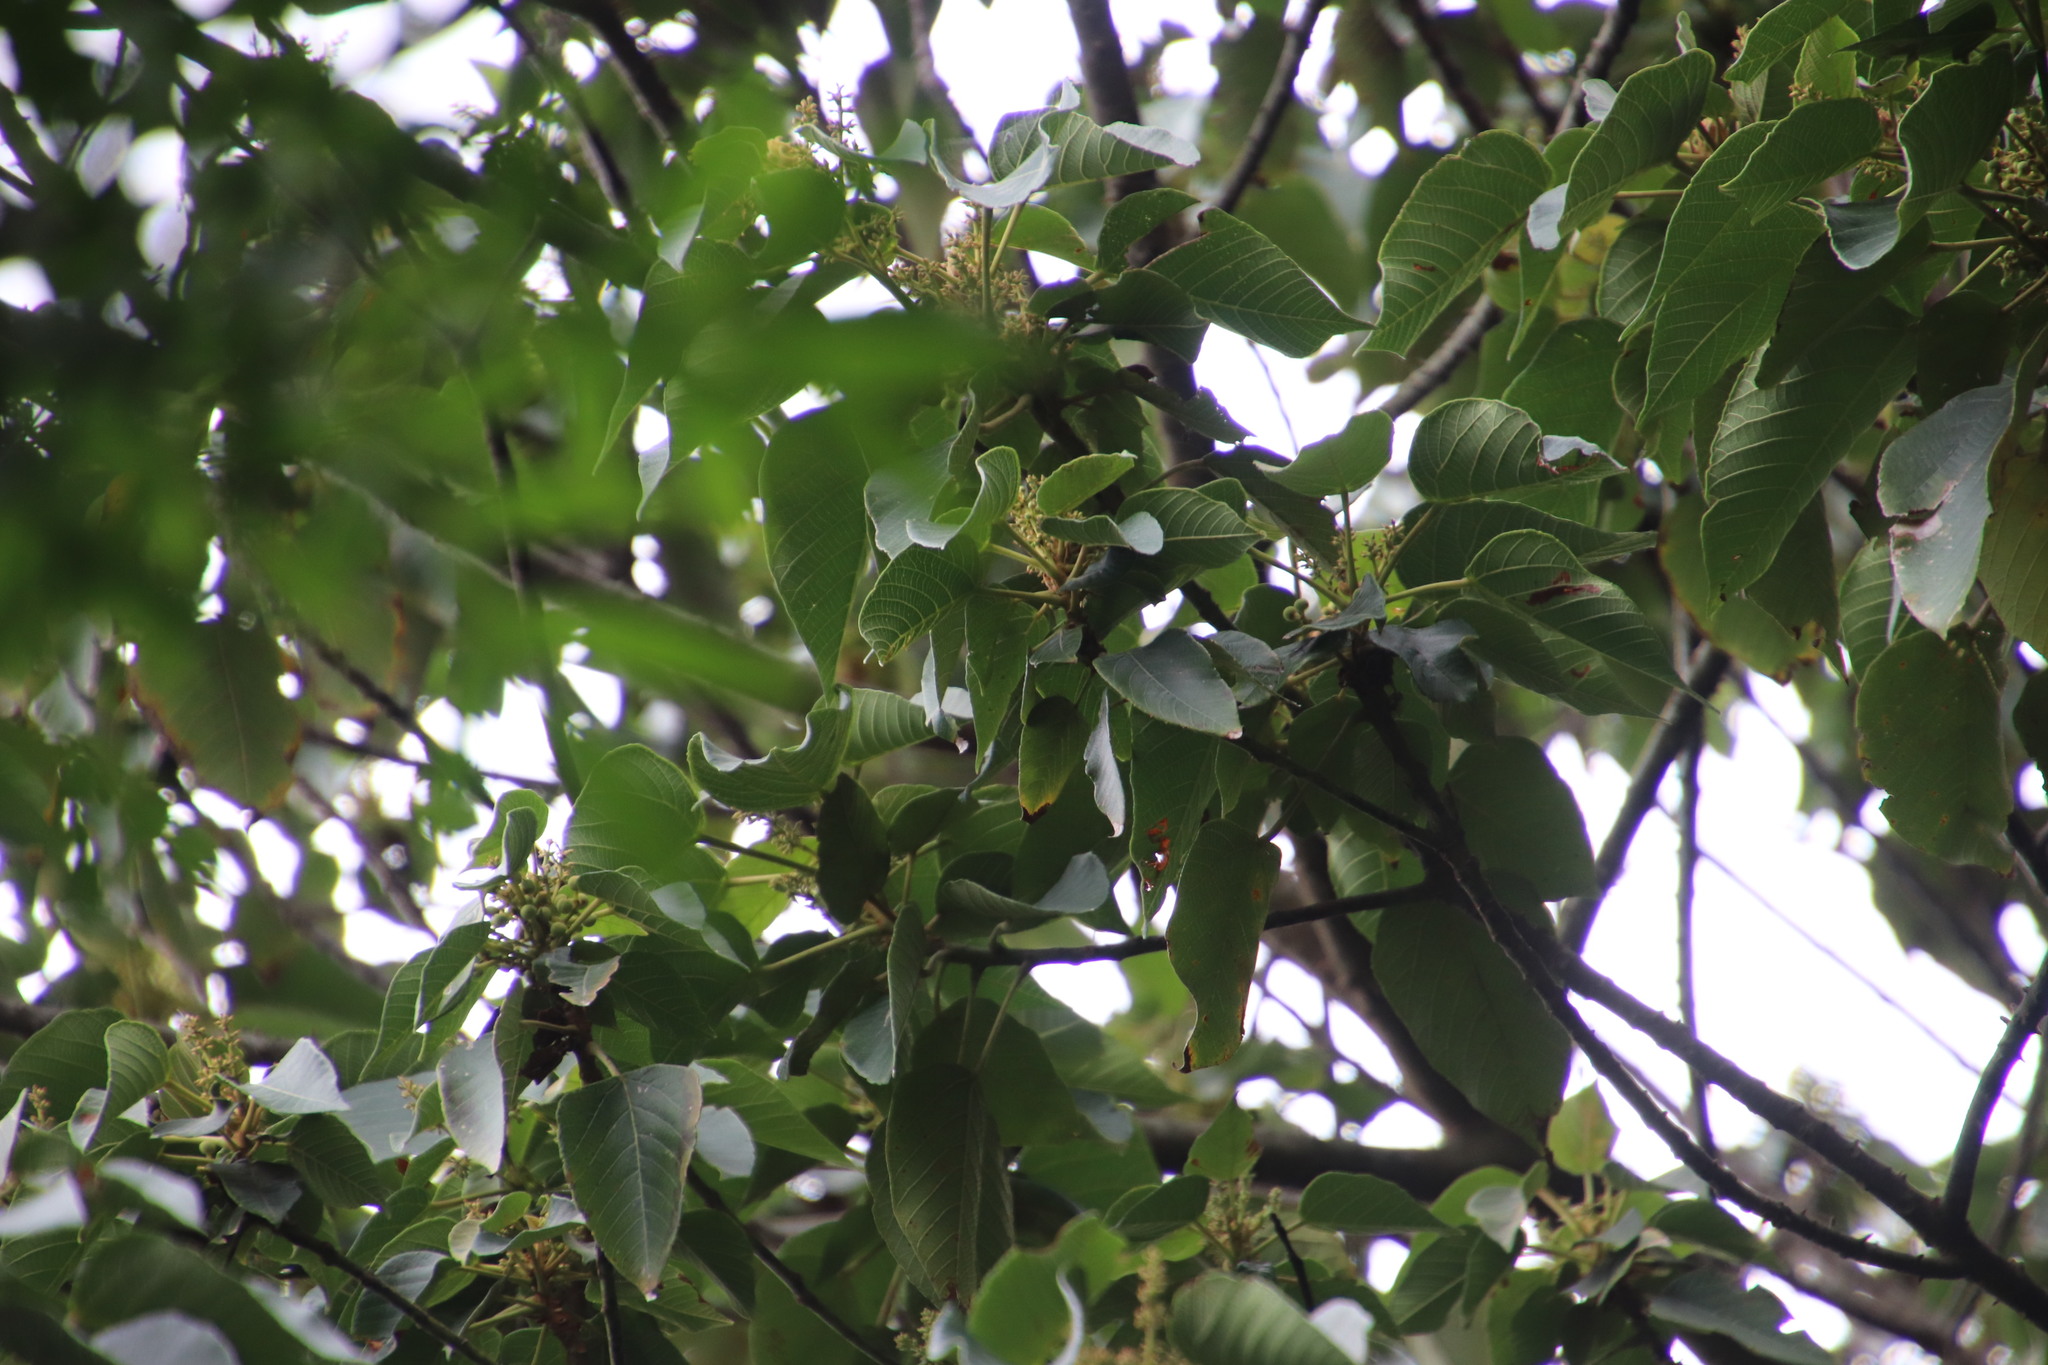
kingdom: Plantae
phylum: Tracheophyta
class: Magnoliopsida
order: Malpighiales
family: Euphorbiaceae
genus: Macaranga
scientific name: Macaranga capensis
